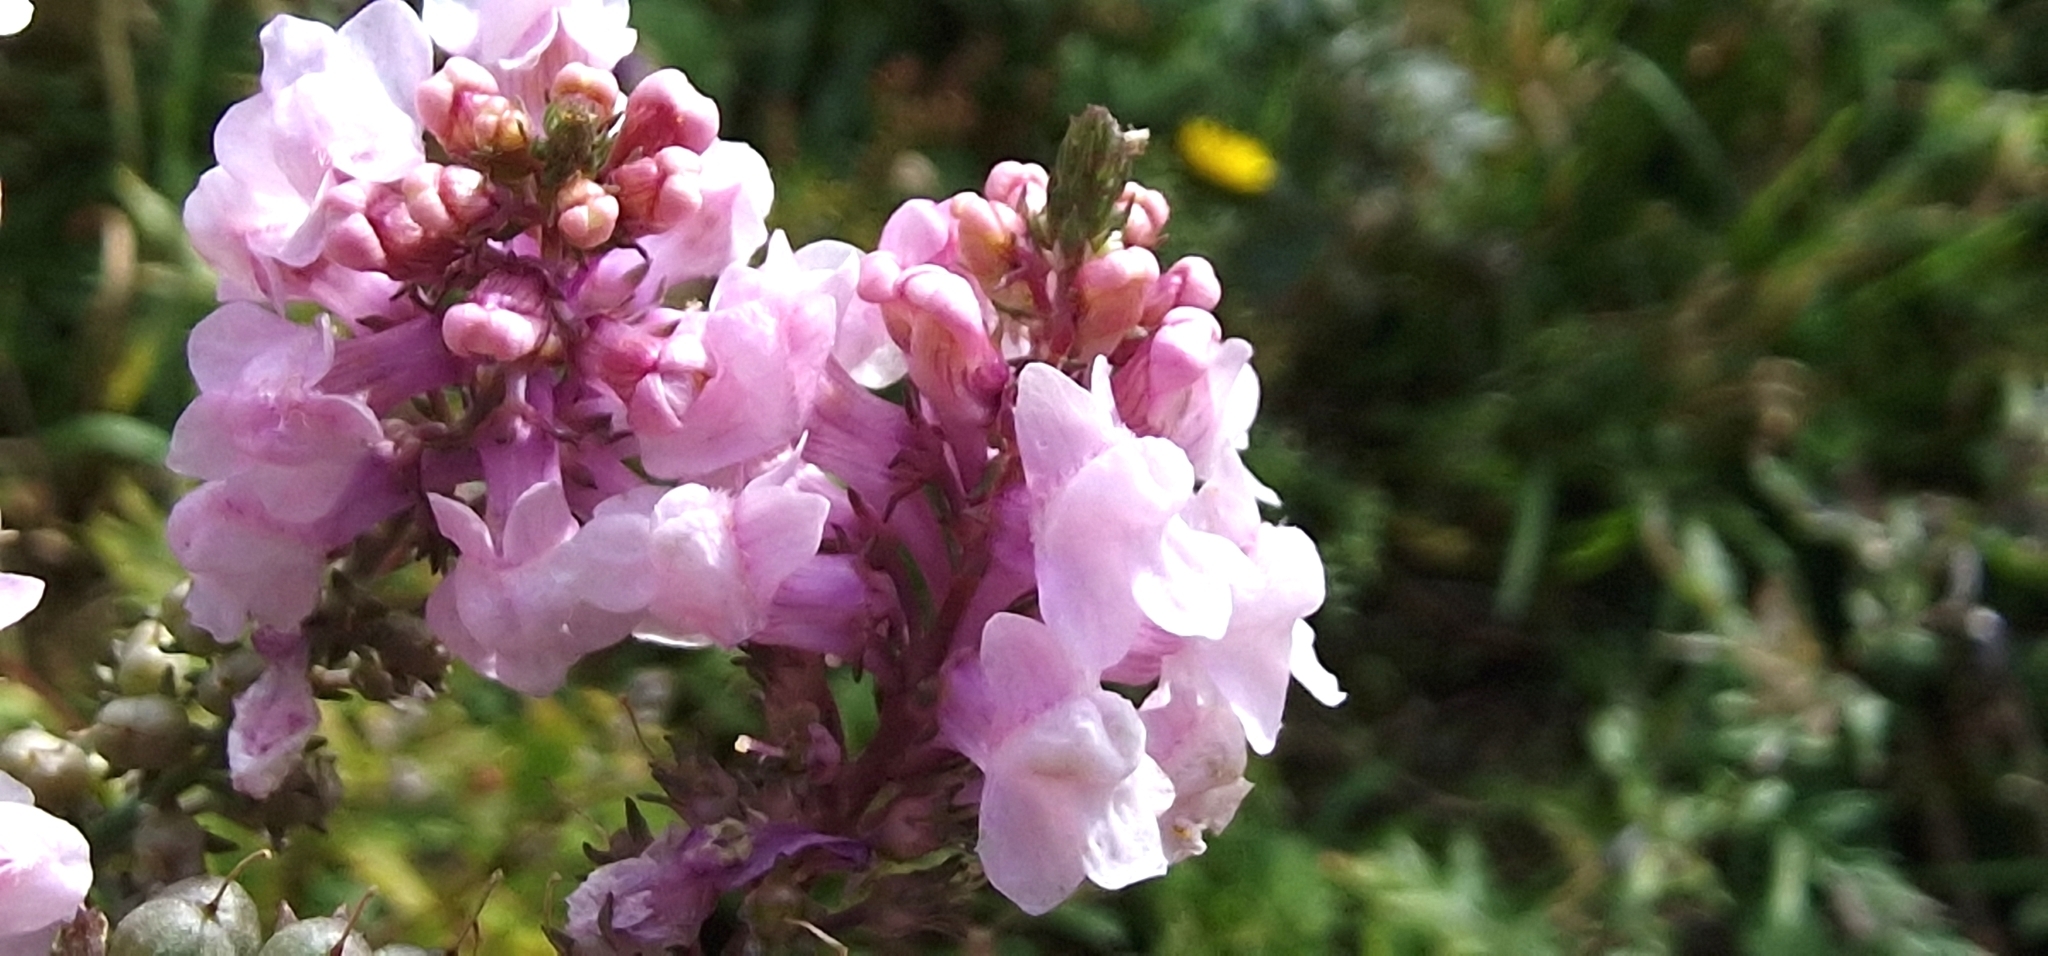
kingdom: Plantae
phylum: Tracheophyta
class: Magnoliopsida
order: Lamiales
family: Plantaginaceae
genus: Linaria
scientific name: Linaria purpurea
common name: Purple toadflax
